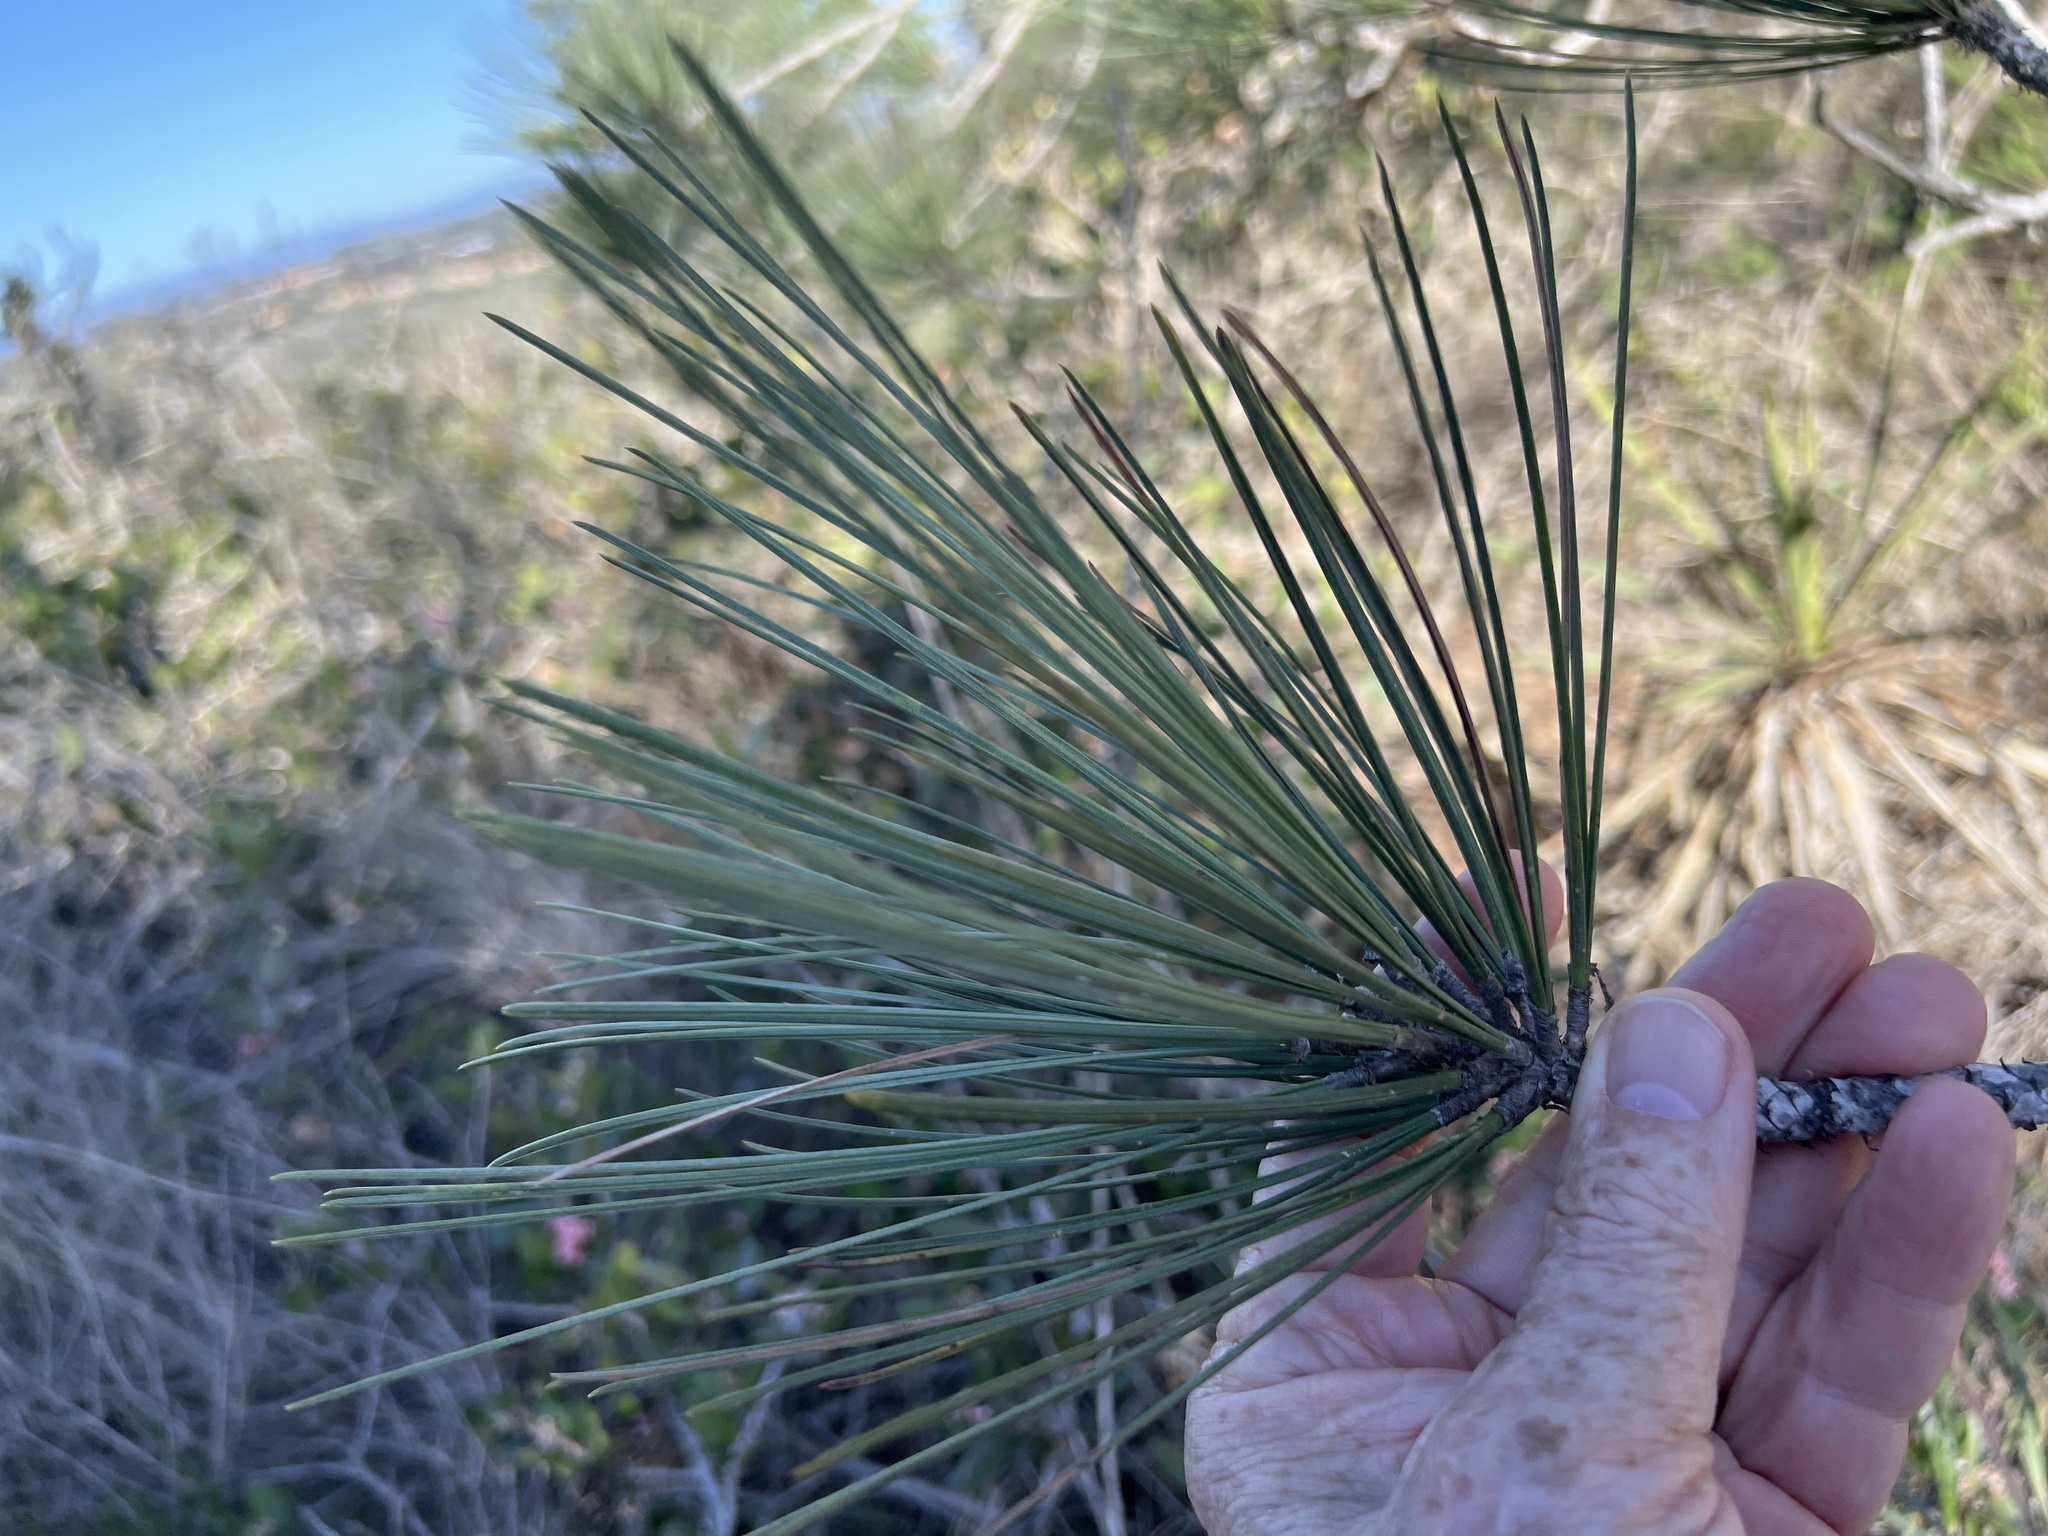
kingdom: Plantae
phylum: Tracheophyta
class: Pinopsida
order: Pinales
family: Pinaceae
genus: Pinus
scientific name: Pinus torreyana
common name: Torrey pine
